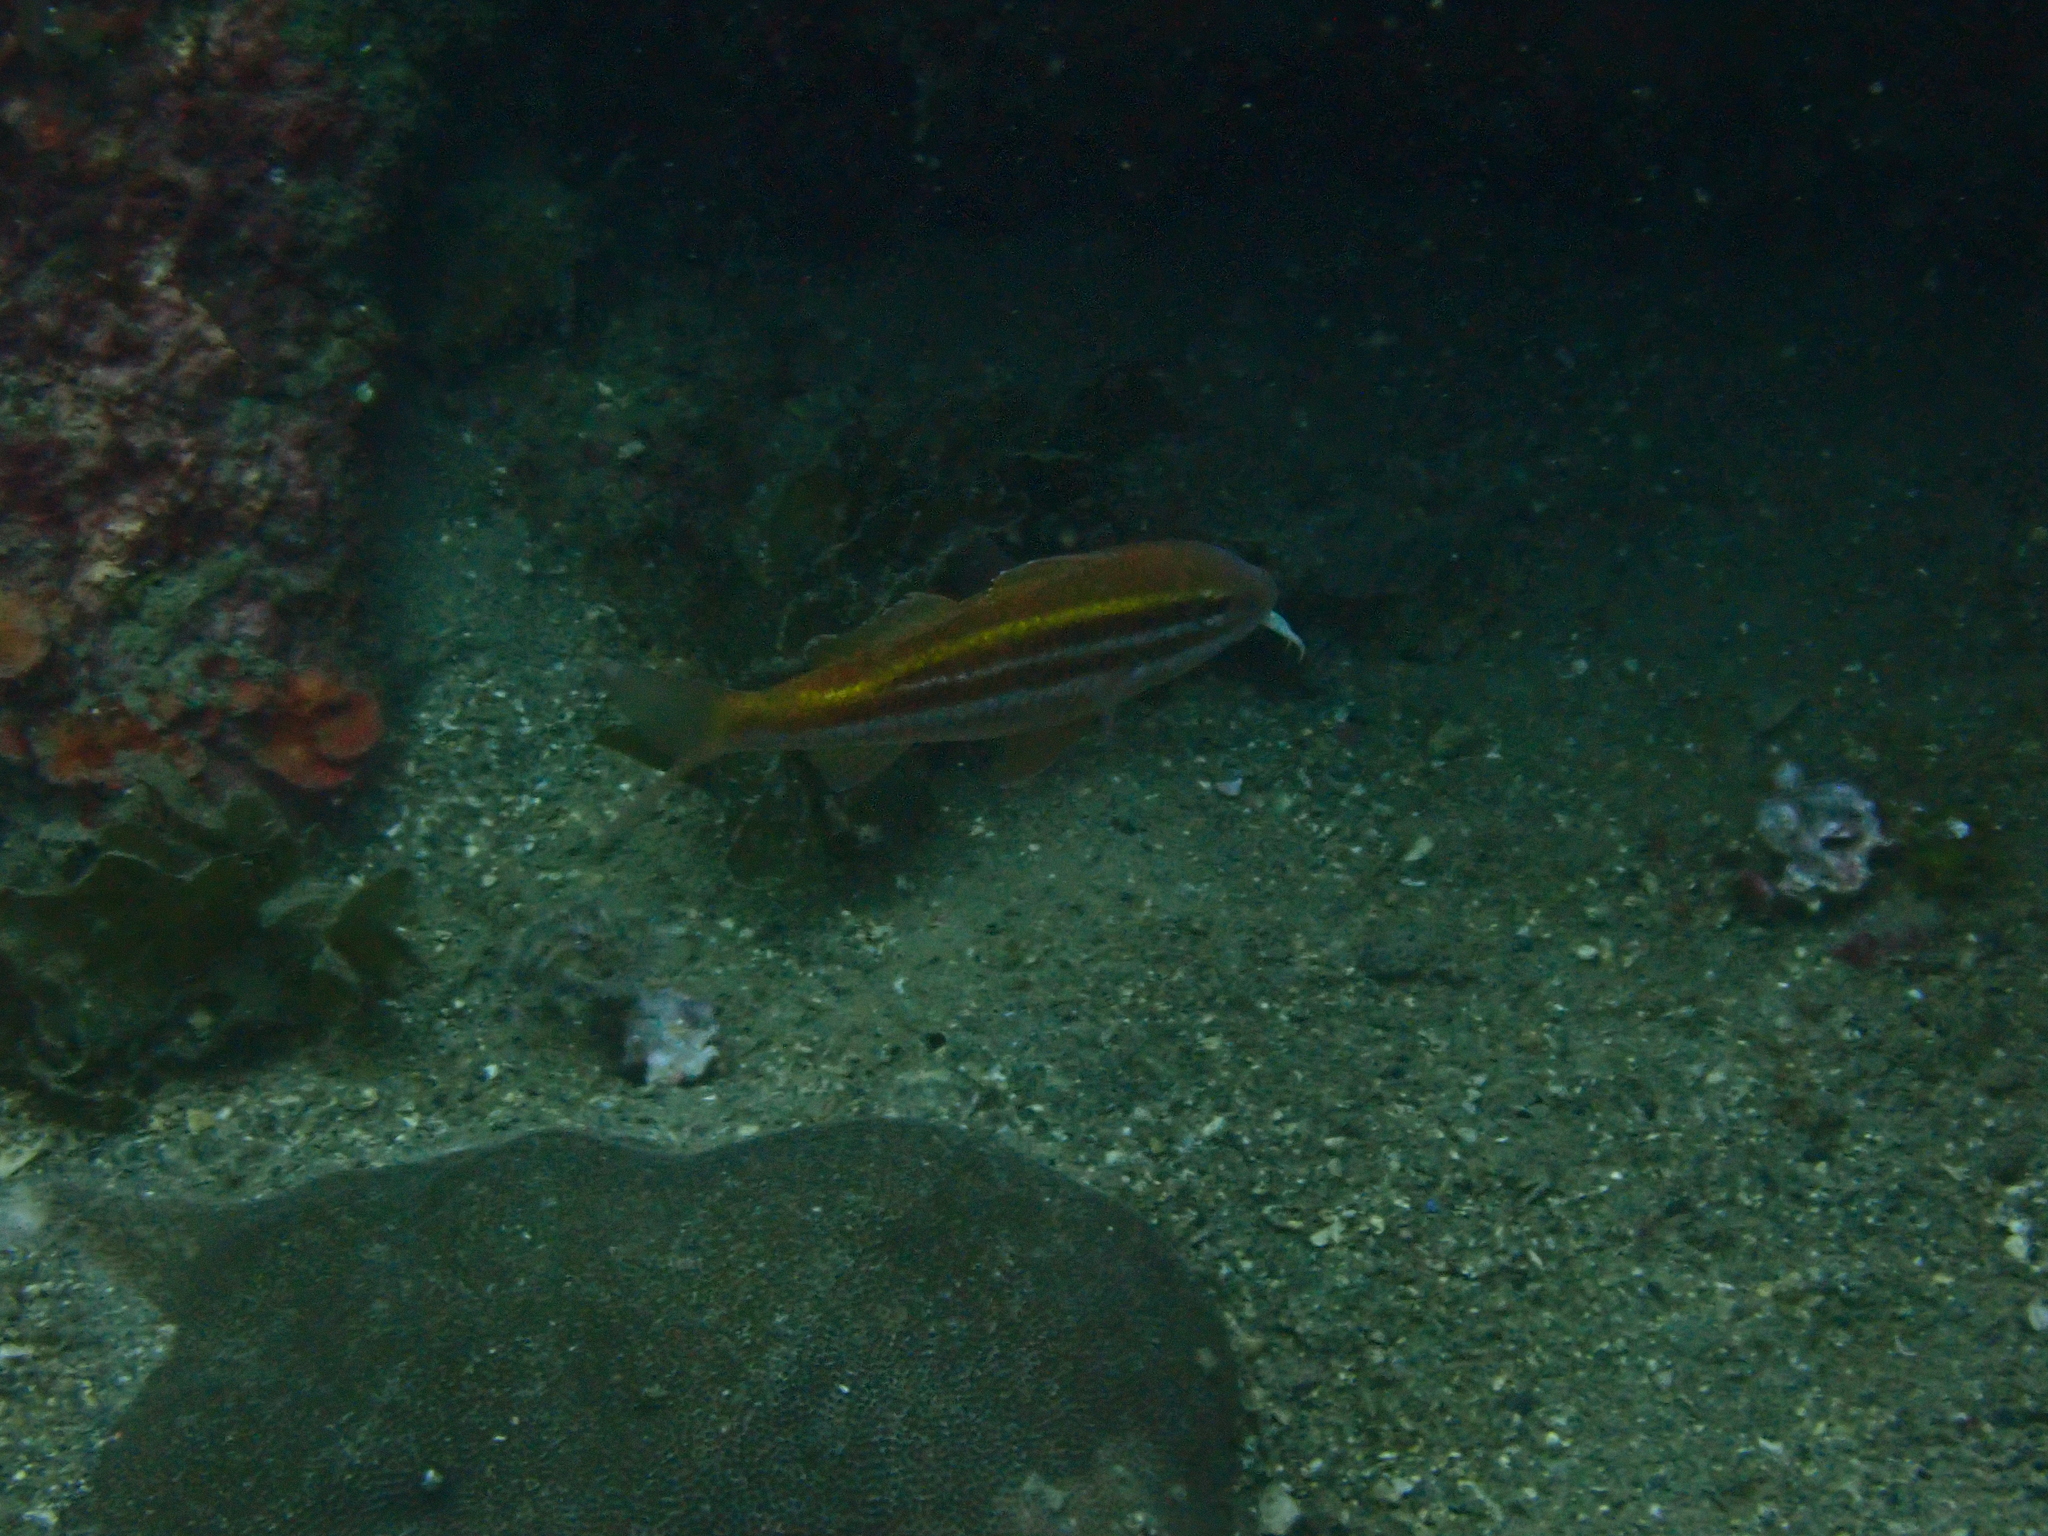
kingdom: Animalia
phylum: Chordata
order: Perciformes
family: Mullidae
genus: Parupeneus
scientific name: Parupeneus biaculeatus
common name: Pointed goatfish
